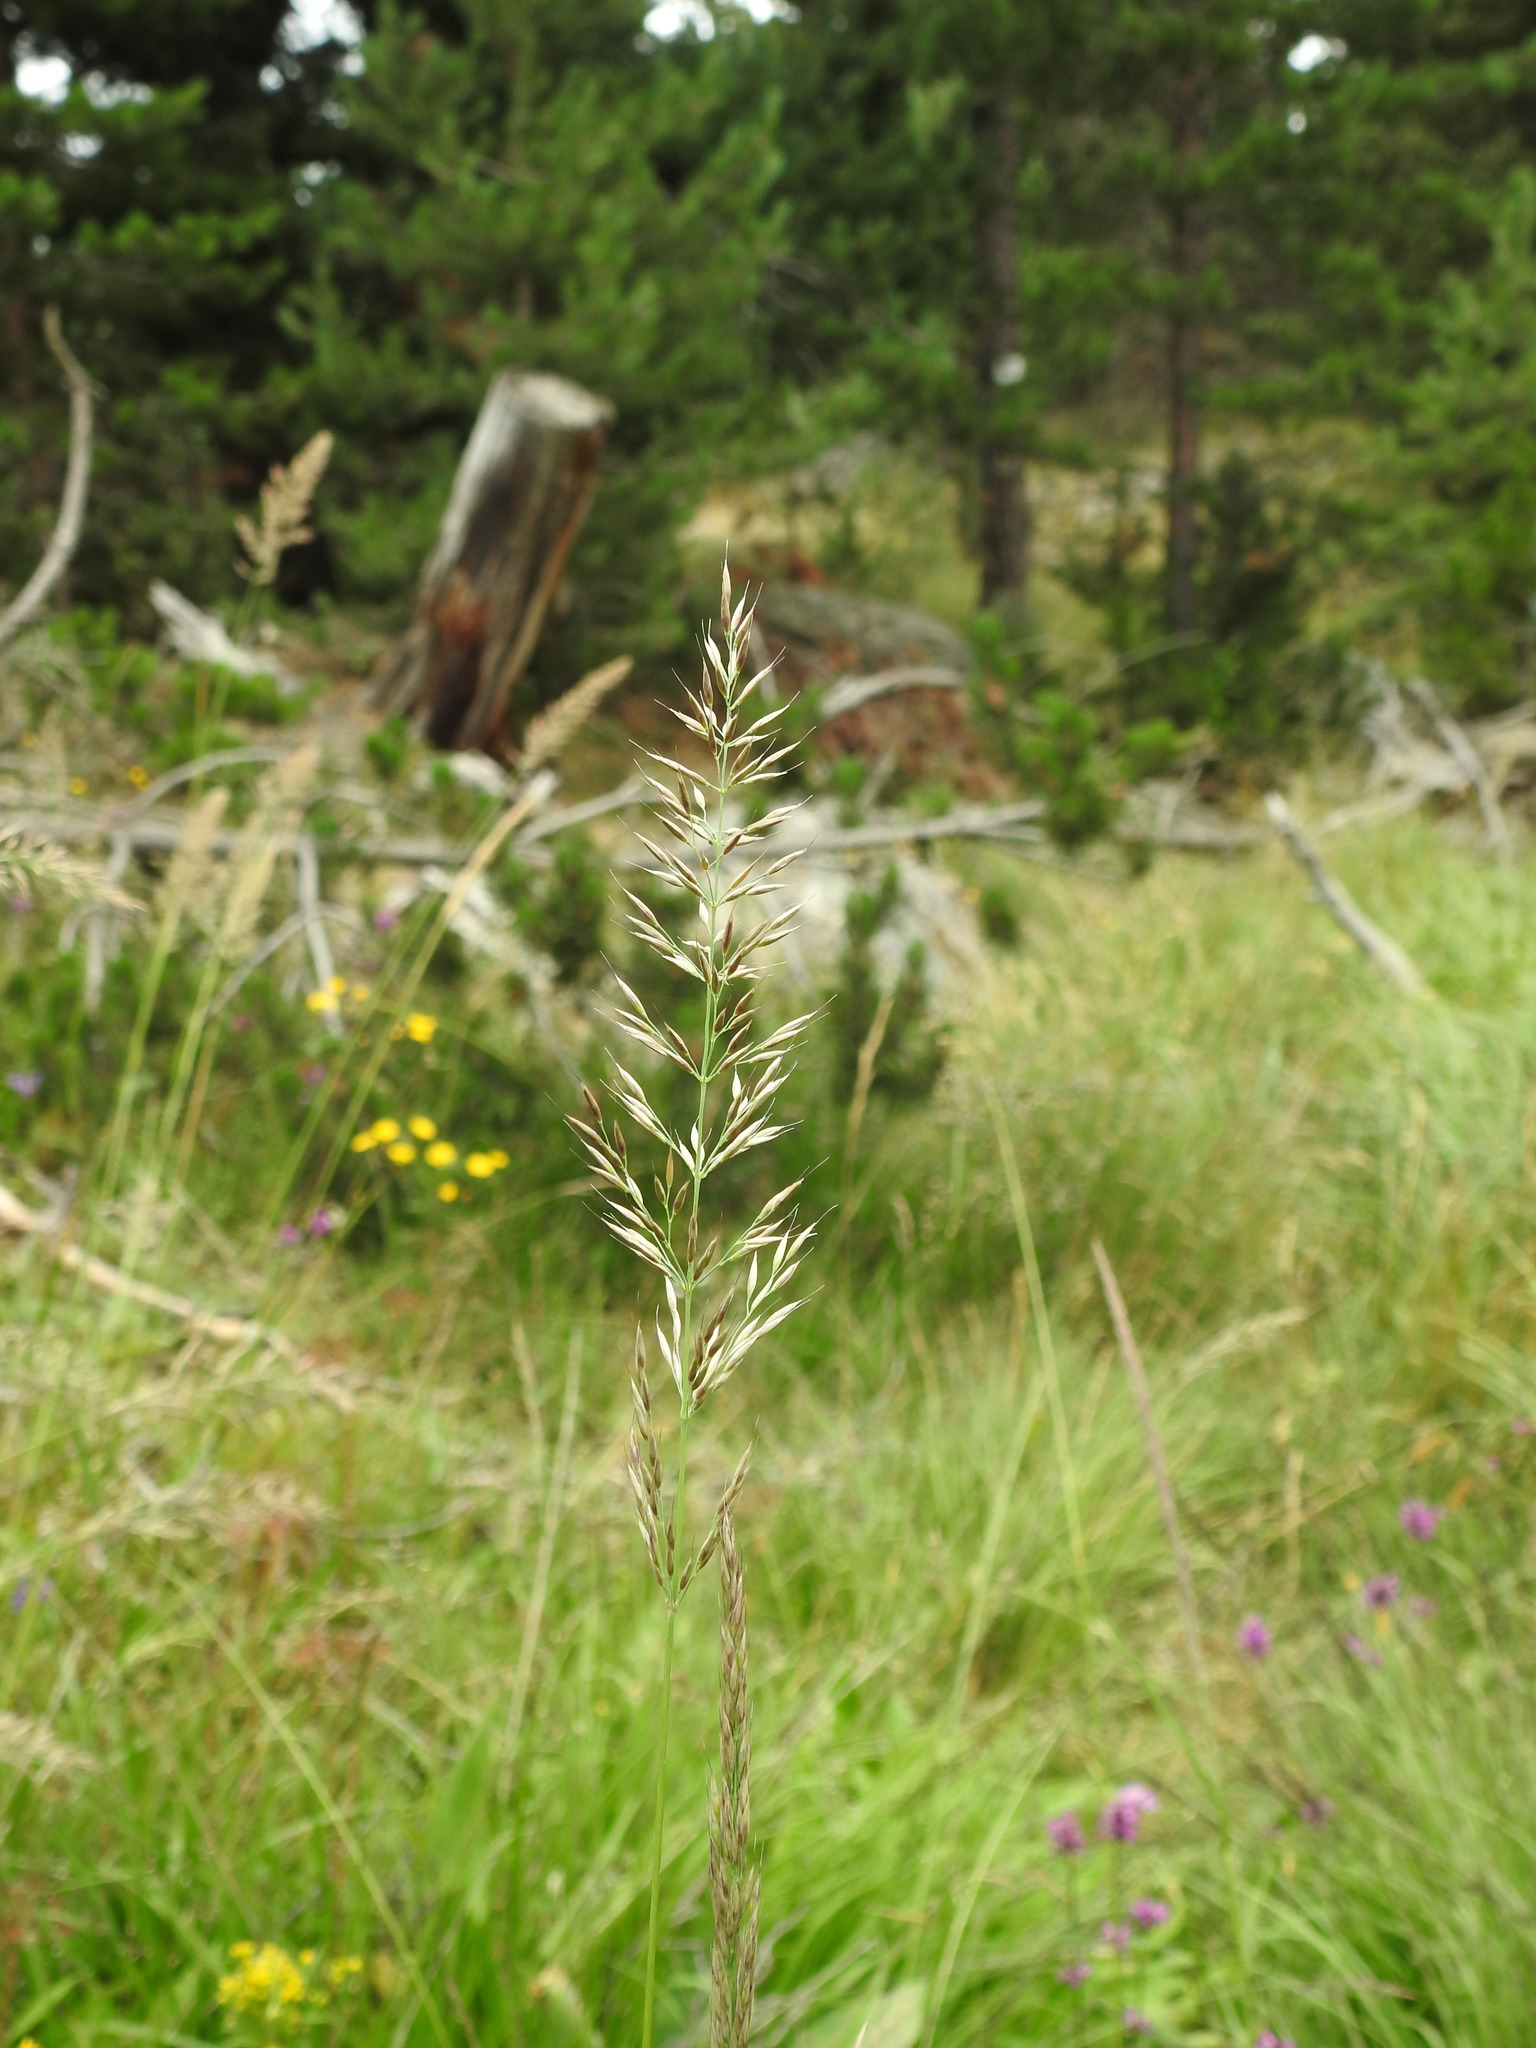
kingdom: Plantae
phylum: Tracheophyta
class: Liliopsida
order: Poales
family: Poaceae
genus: Calamagrostis
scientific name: Calamagrostis arundinacea
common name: Metskastik
